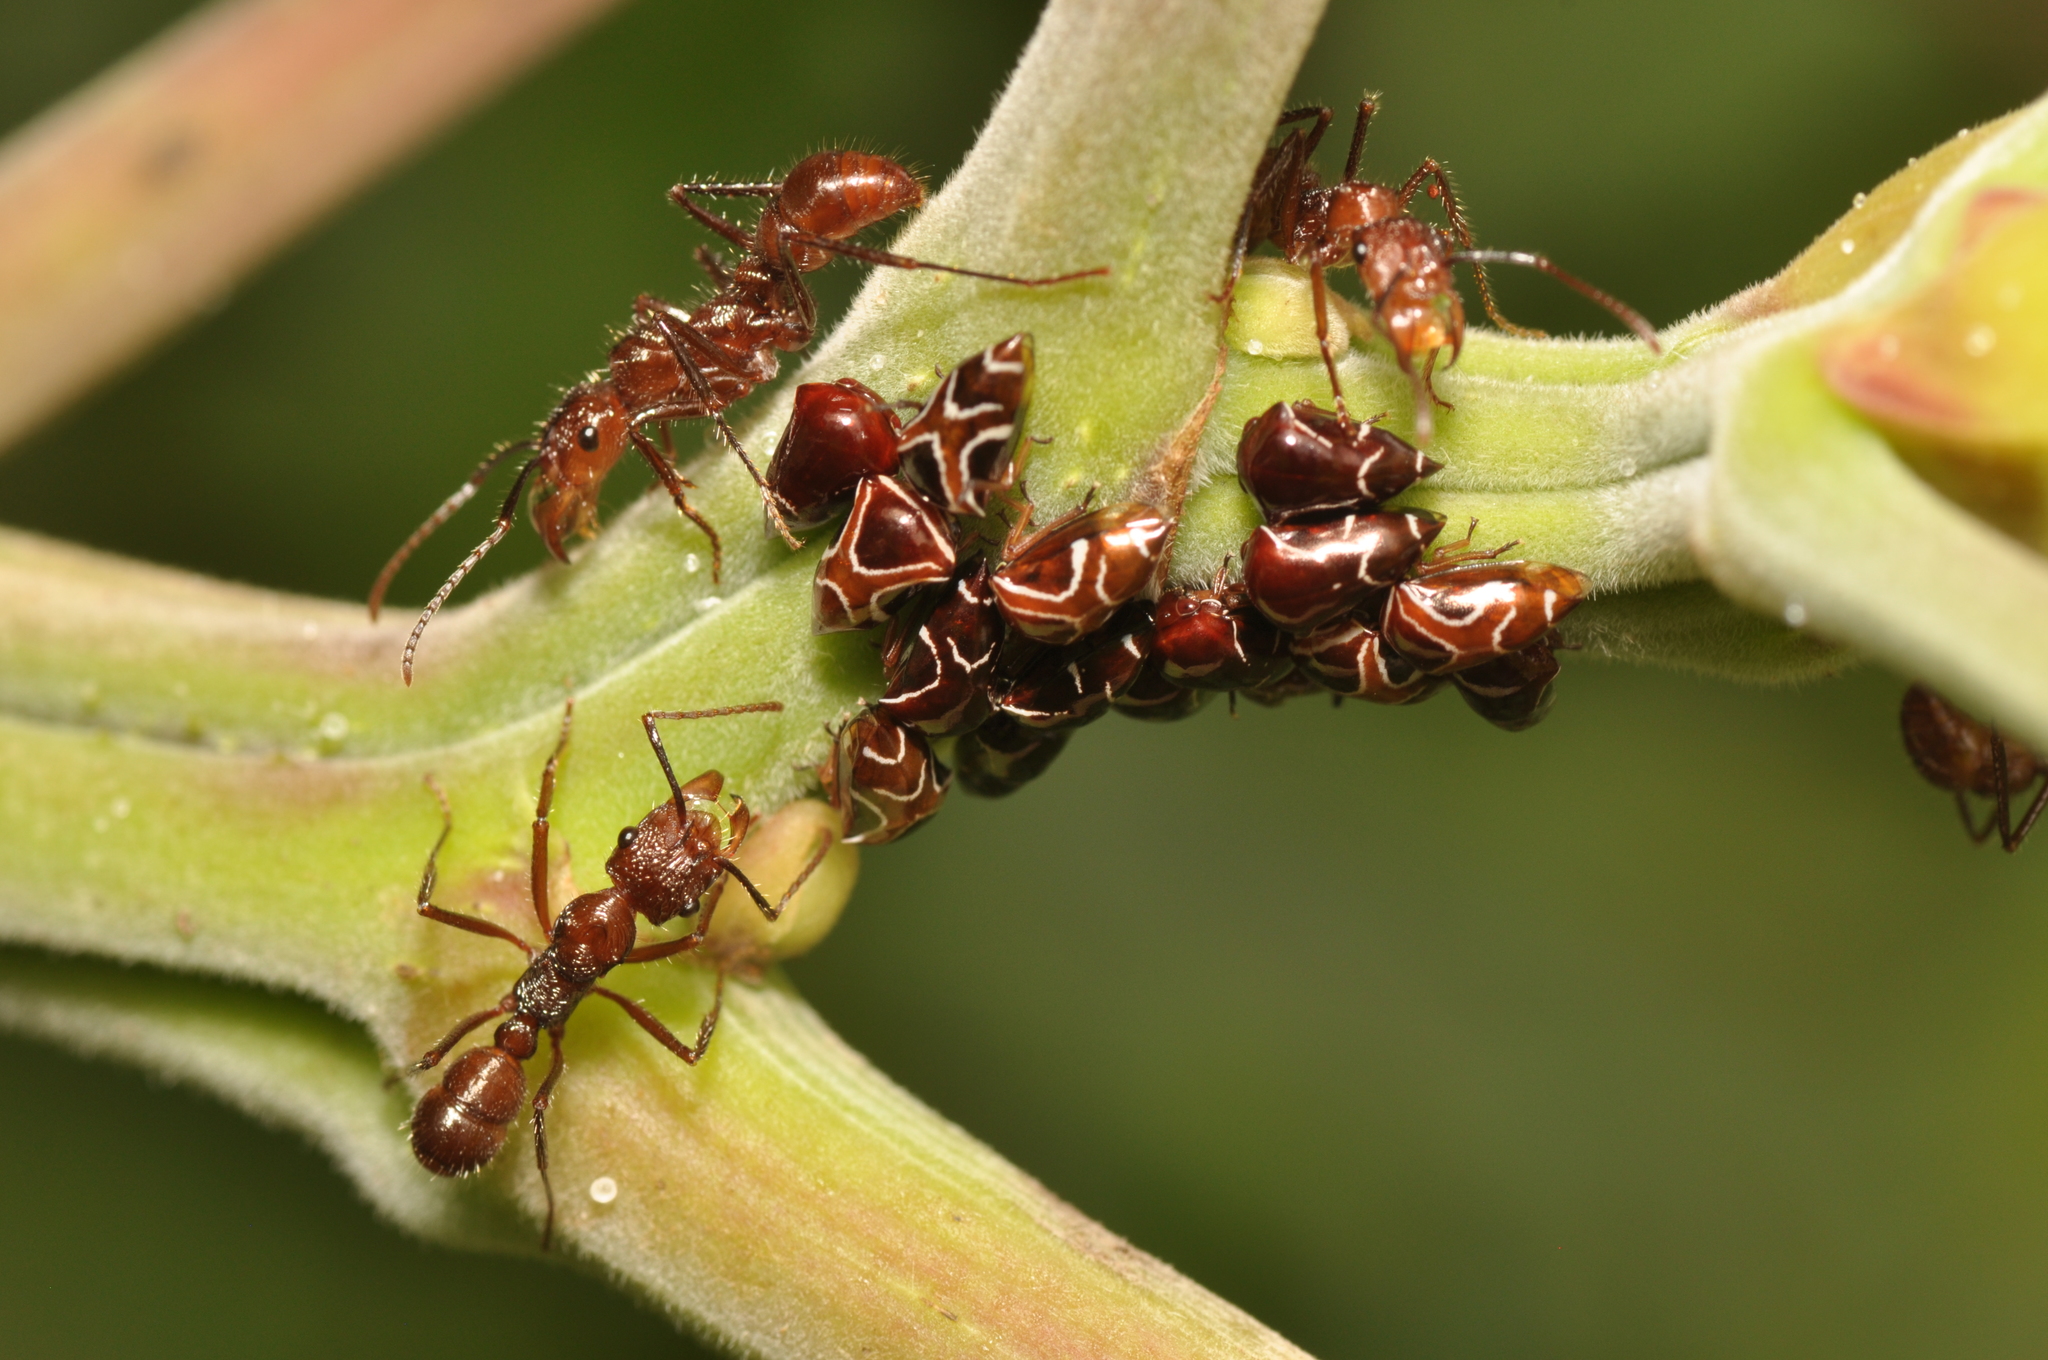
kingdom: Animalia
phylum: Arthropoda
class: Insecta
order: Hemiptera
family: Membracidae
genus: Horiola
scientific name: Horiola picta
